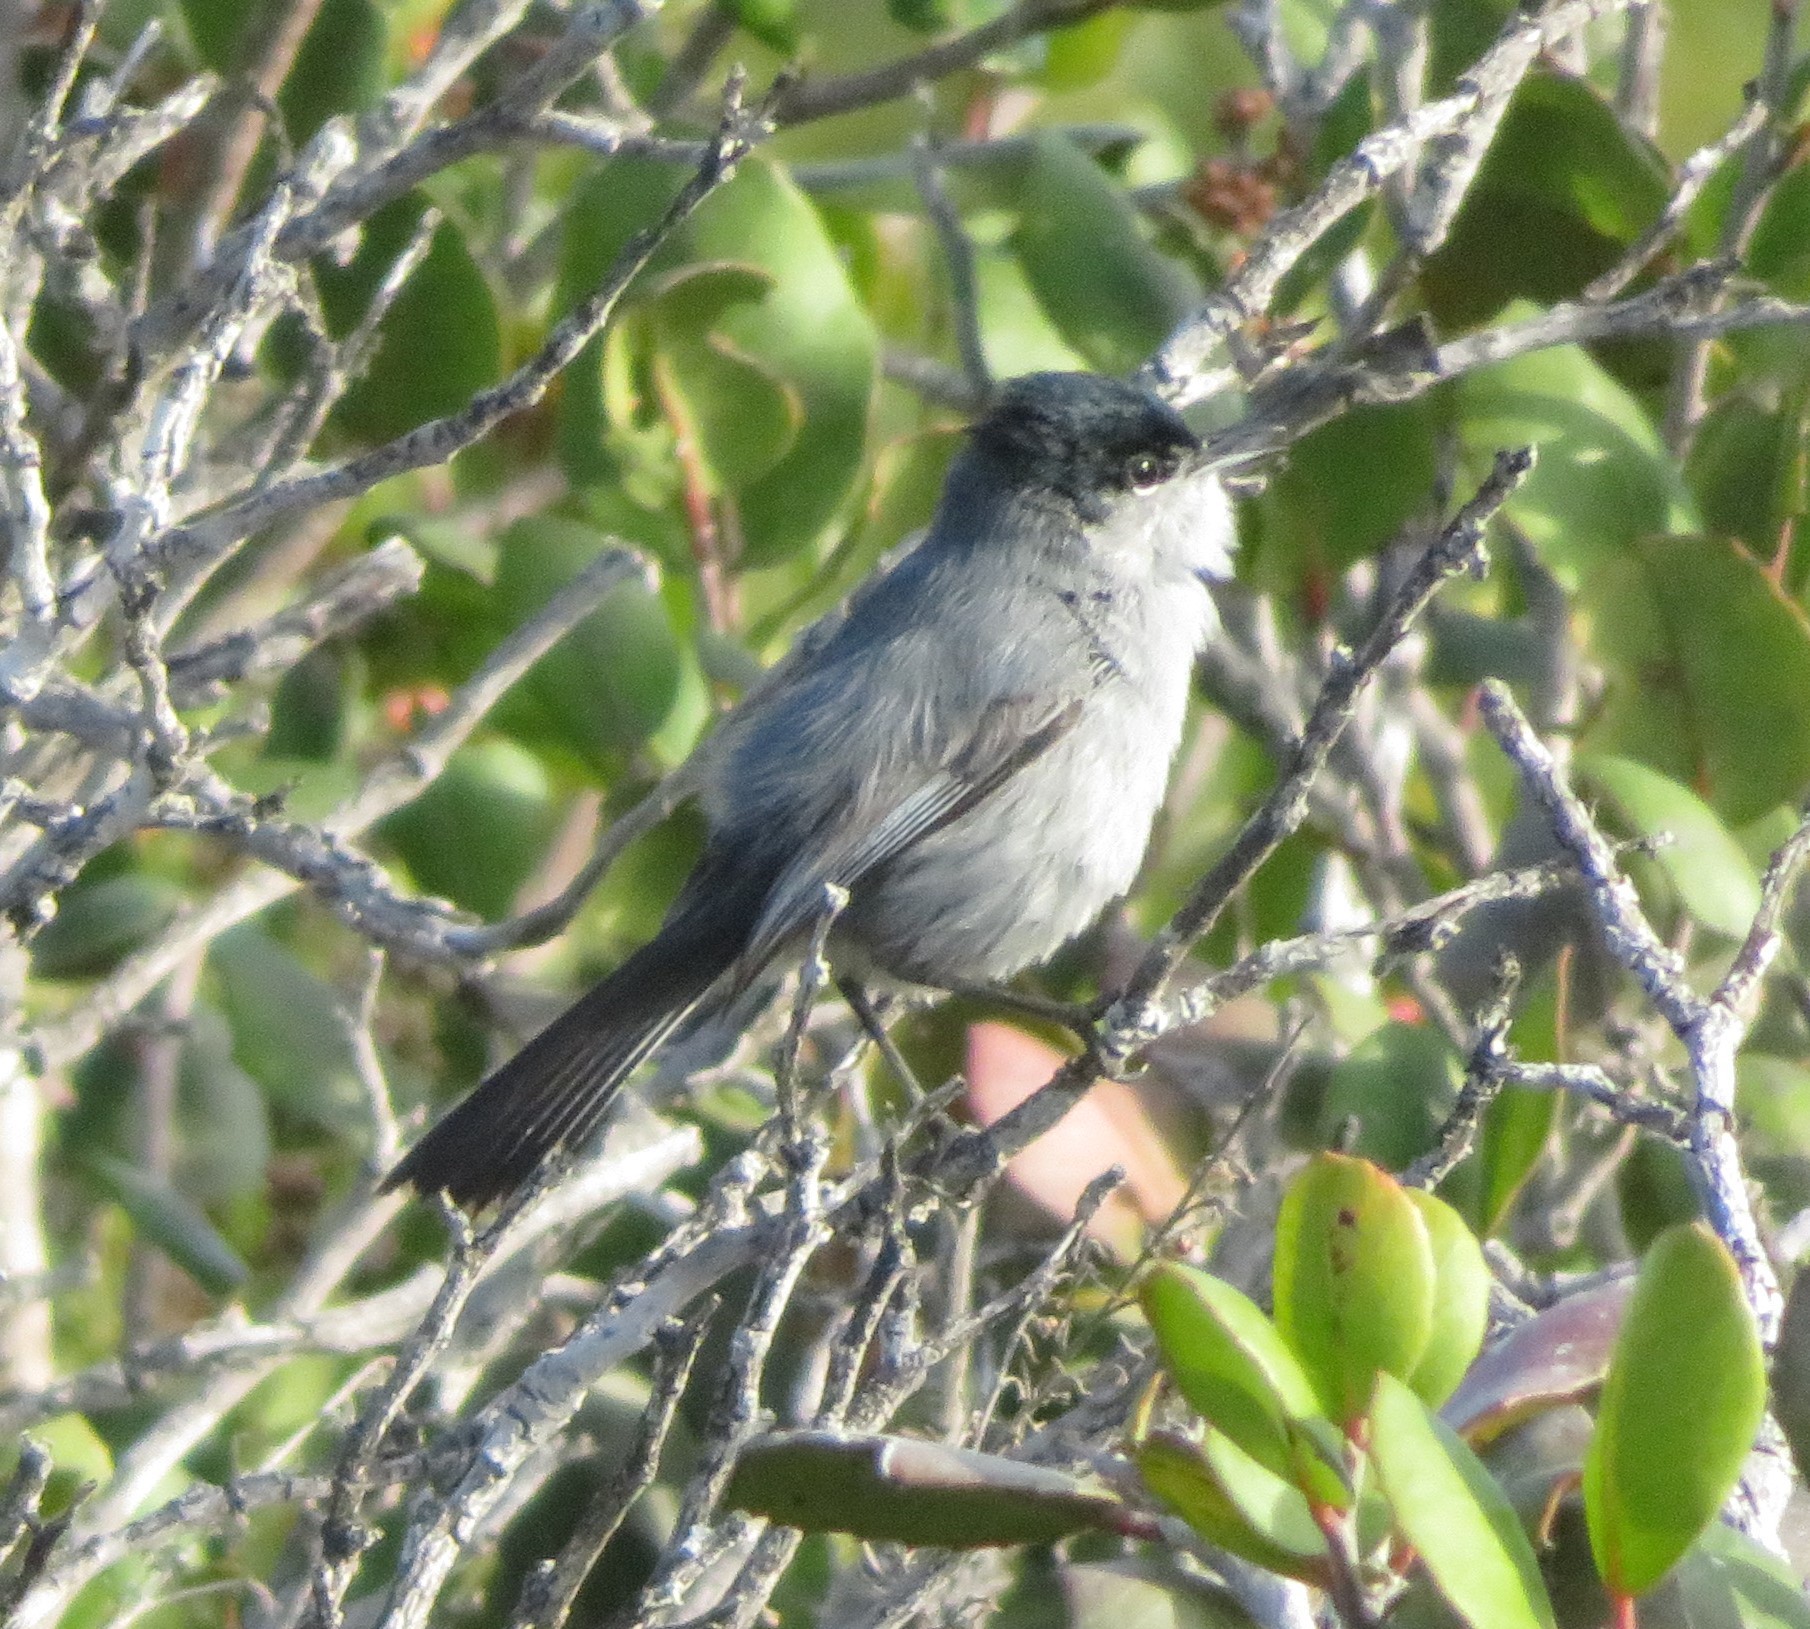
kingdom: Animalia
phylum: Chordata
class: Aves
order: Passeriformes
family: Polioptilidae
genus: Polioptila
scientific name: Polioptila californica
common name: California gnatcatcher
